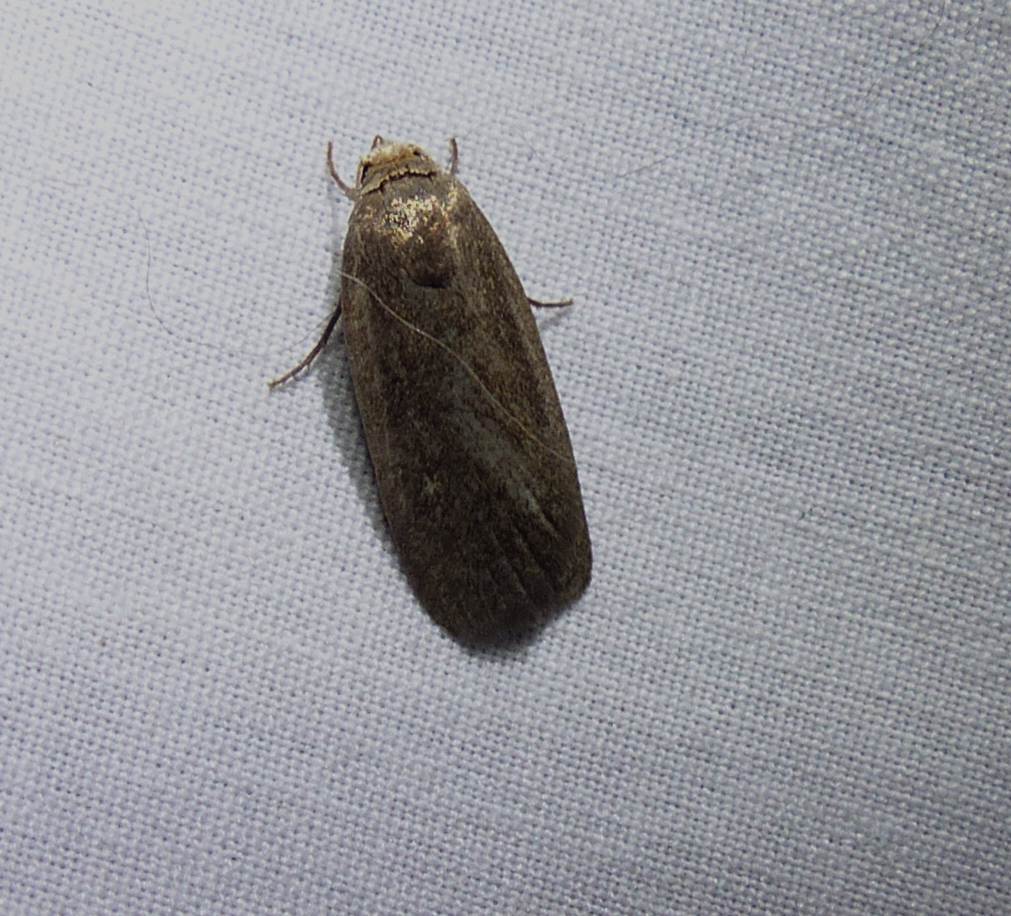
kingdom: Animalia
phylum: Arthropoda
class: Insecta
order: Lepidoptera
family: Noctuidae
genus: Proxenus
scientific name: Proxenus miranda
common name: Miranda moth
